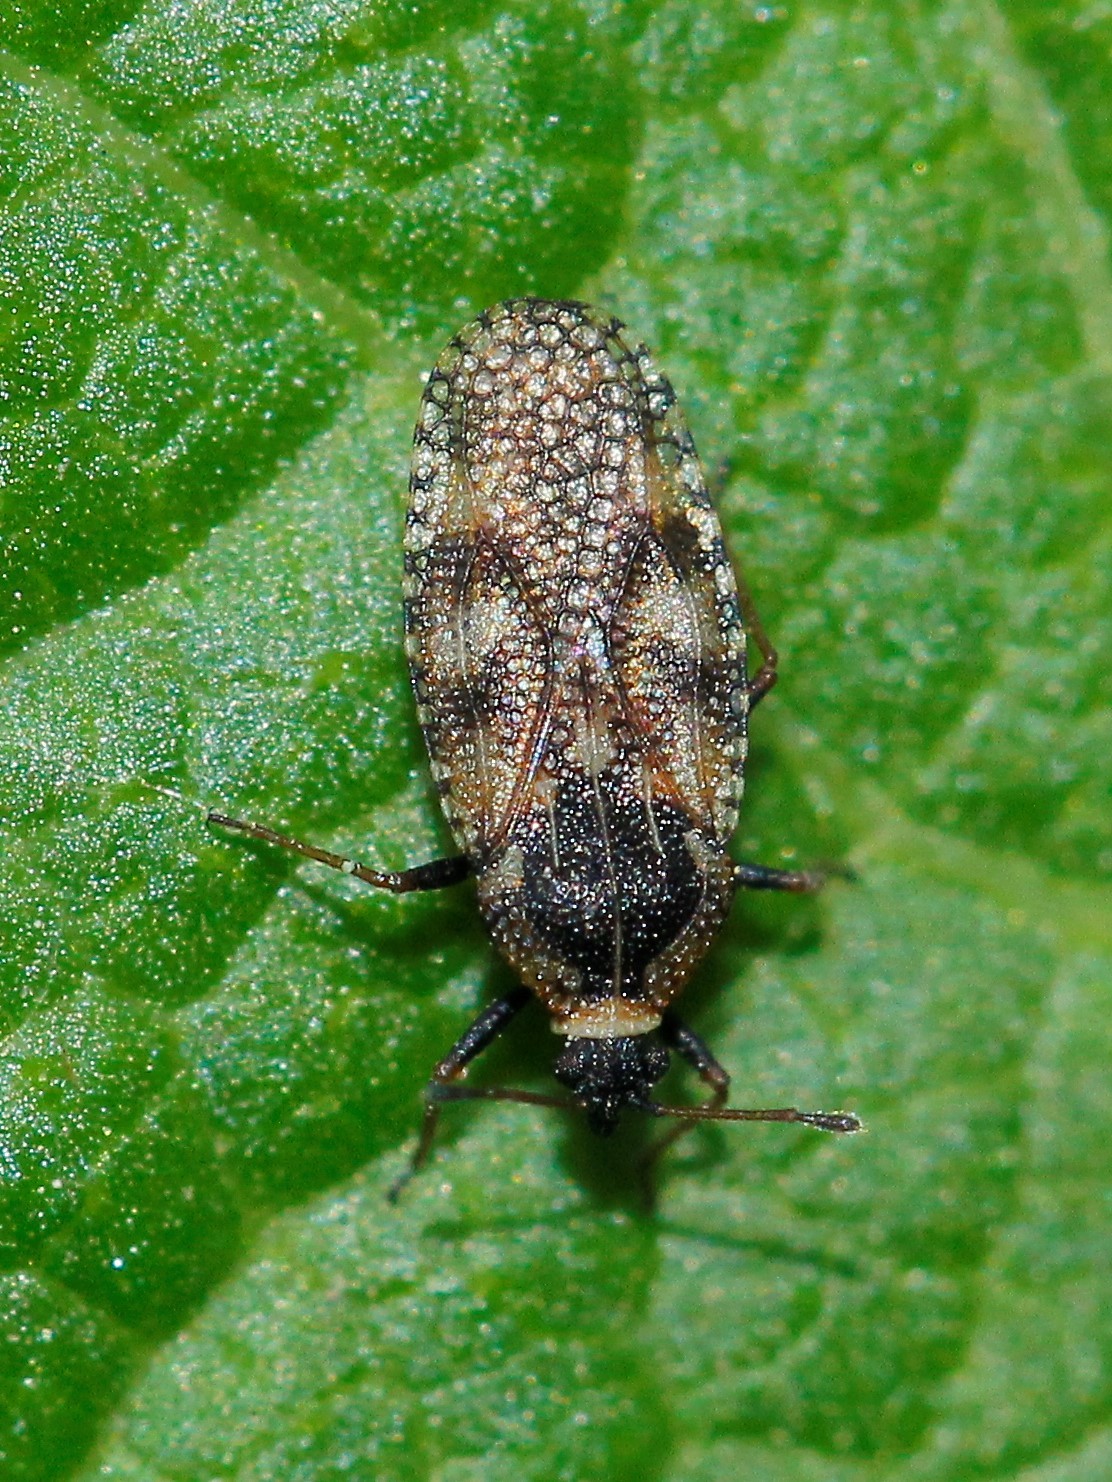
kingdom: Animalia
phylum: Arthropoda
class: Insecta
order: Hemiptera
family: Tingidae
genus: Dictyla
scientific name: Dictyla echii
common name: Lace bug
